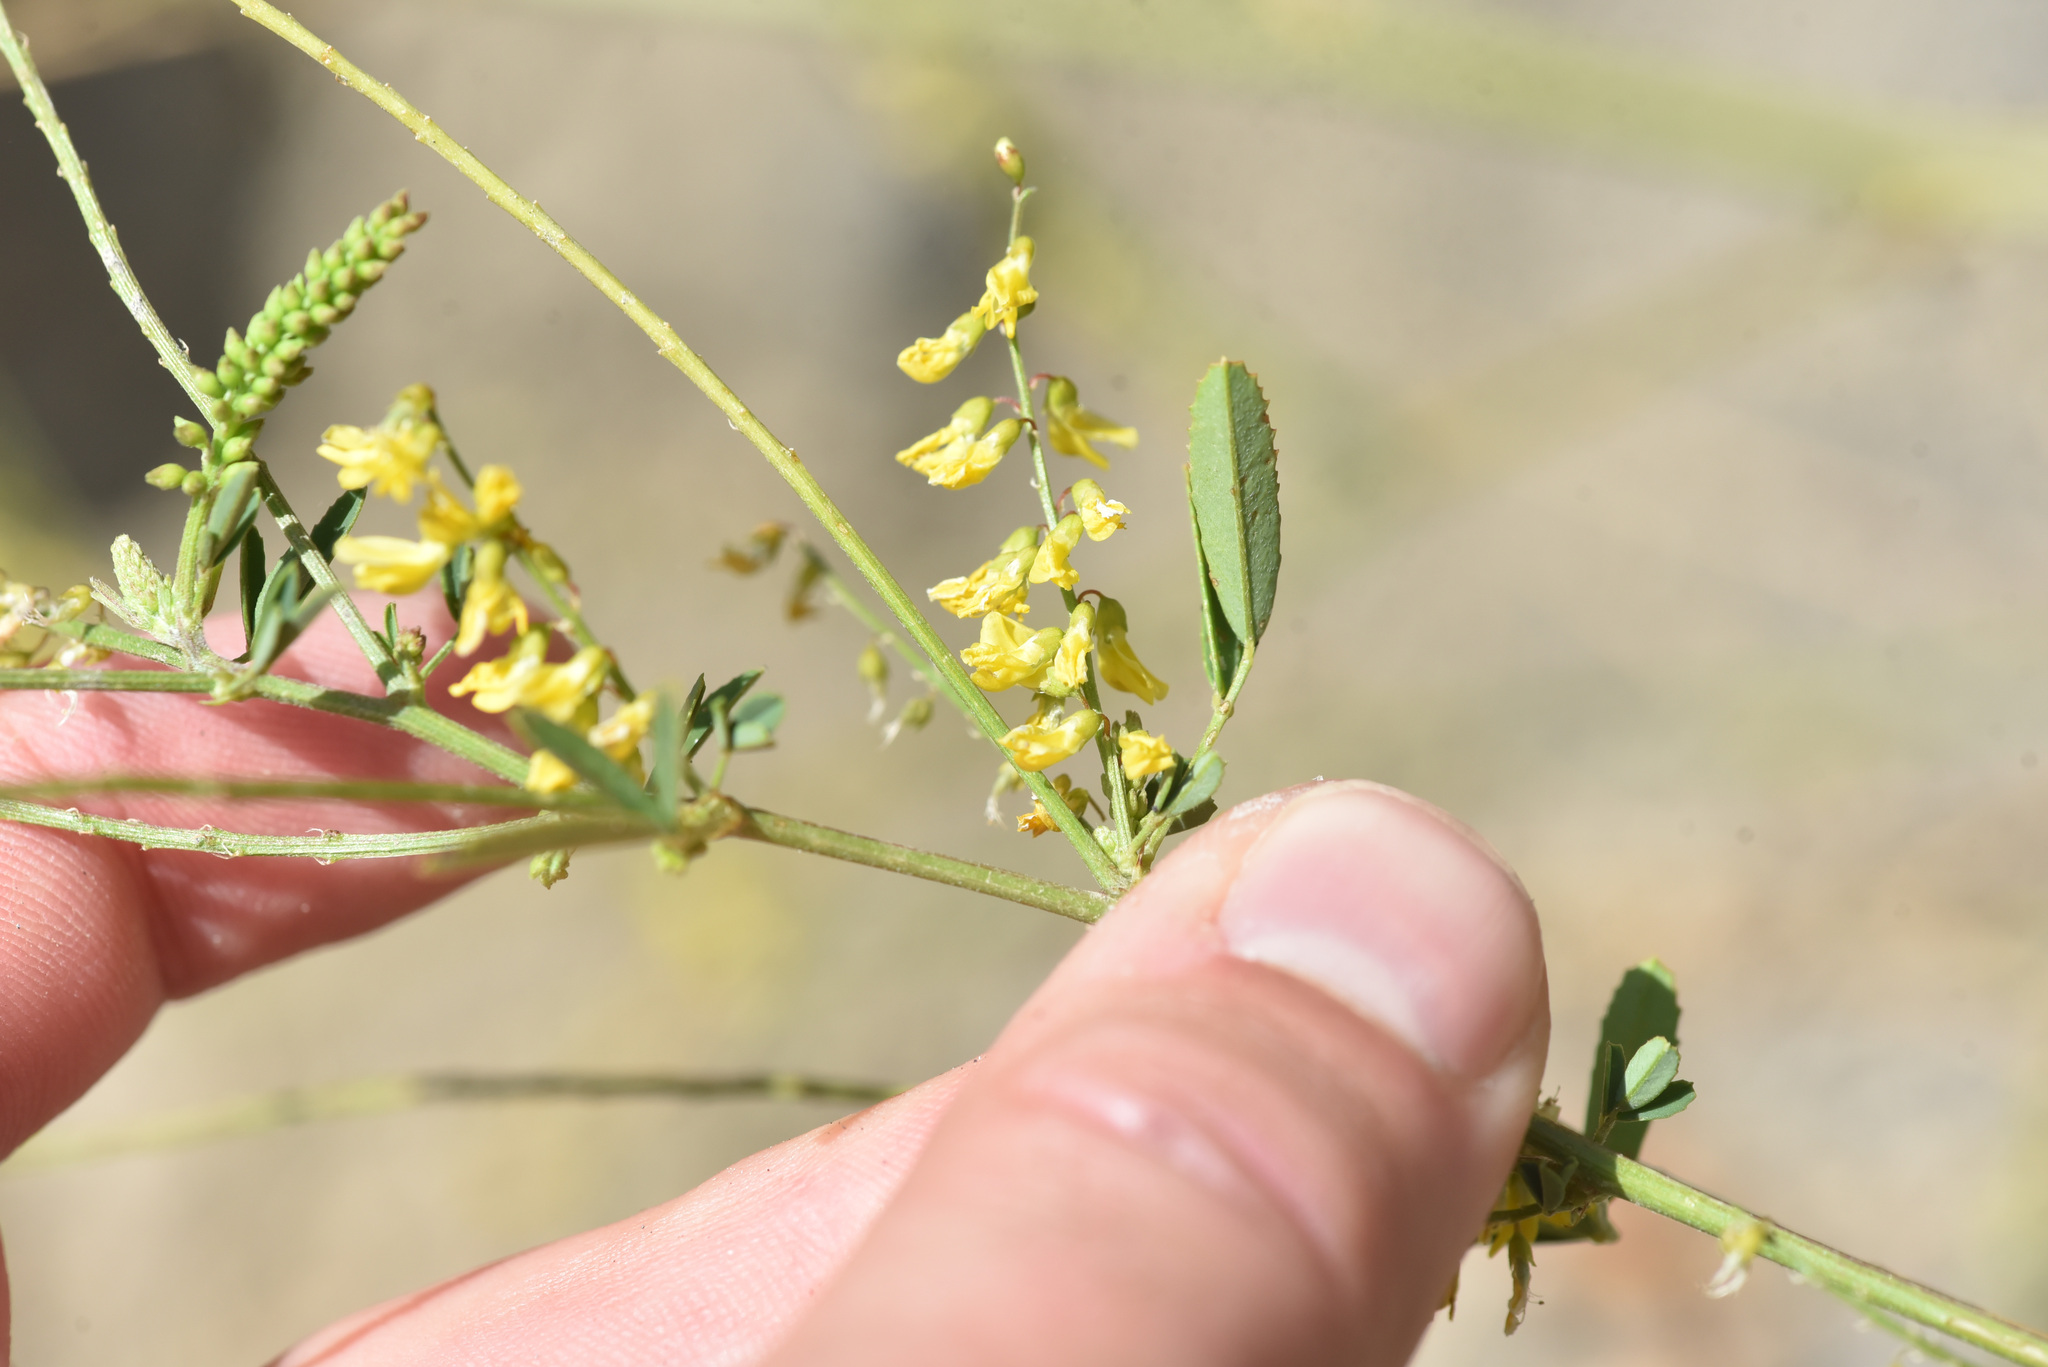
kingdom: Plantae
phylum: Tracheophyta
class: Magnoliopsida
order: Fabales
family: Fabaceae
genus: Melilotus
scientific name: Melilotus officinalis
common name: Sweetclover
